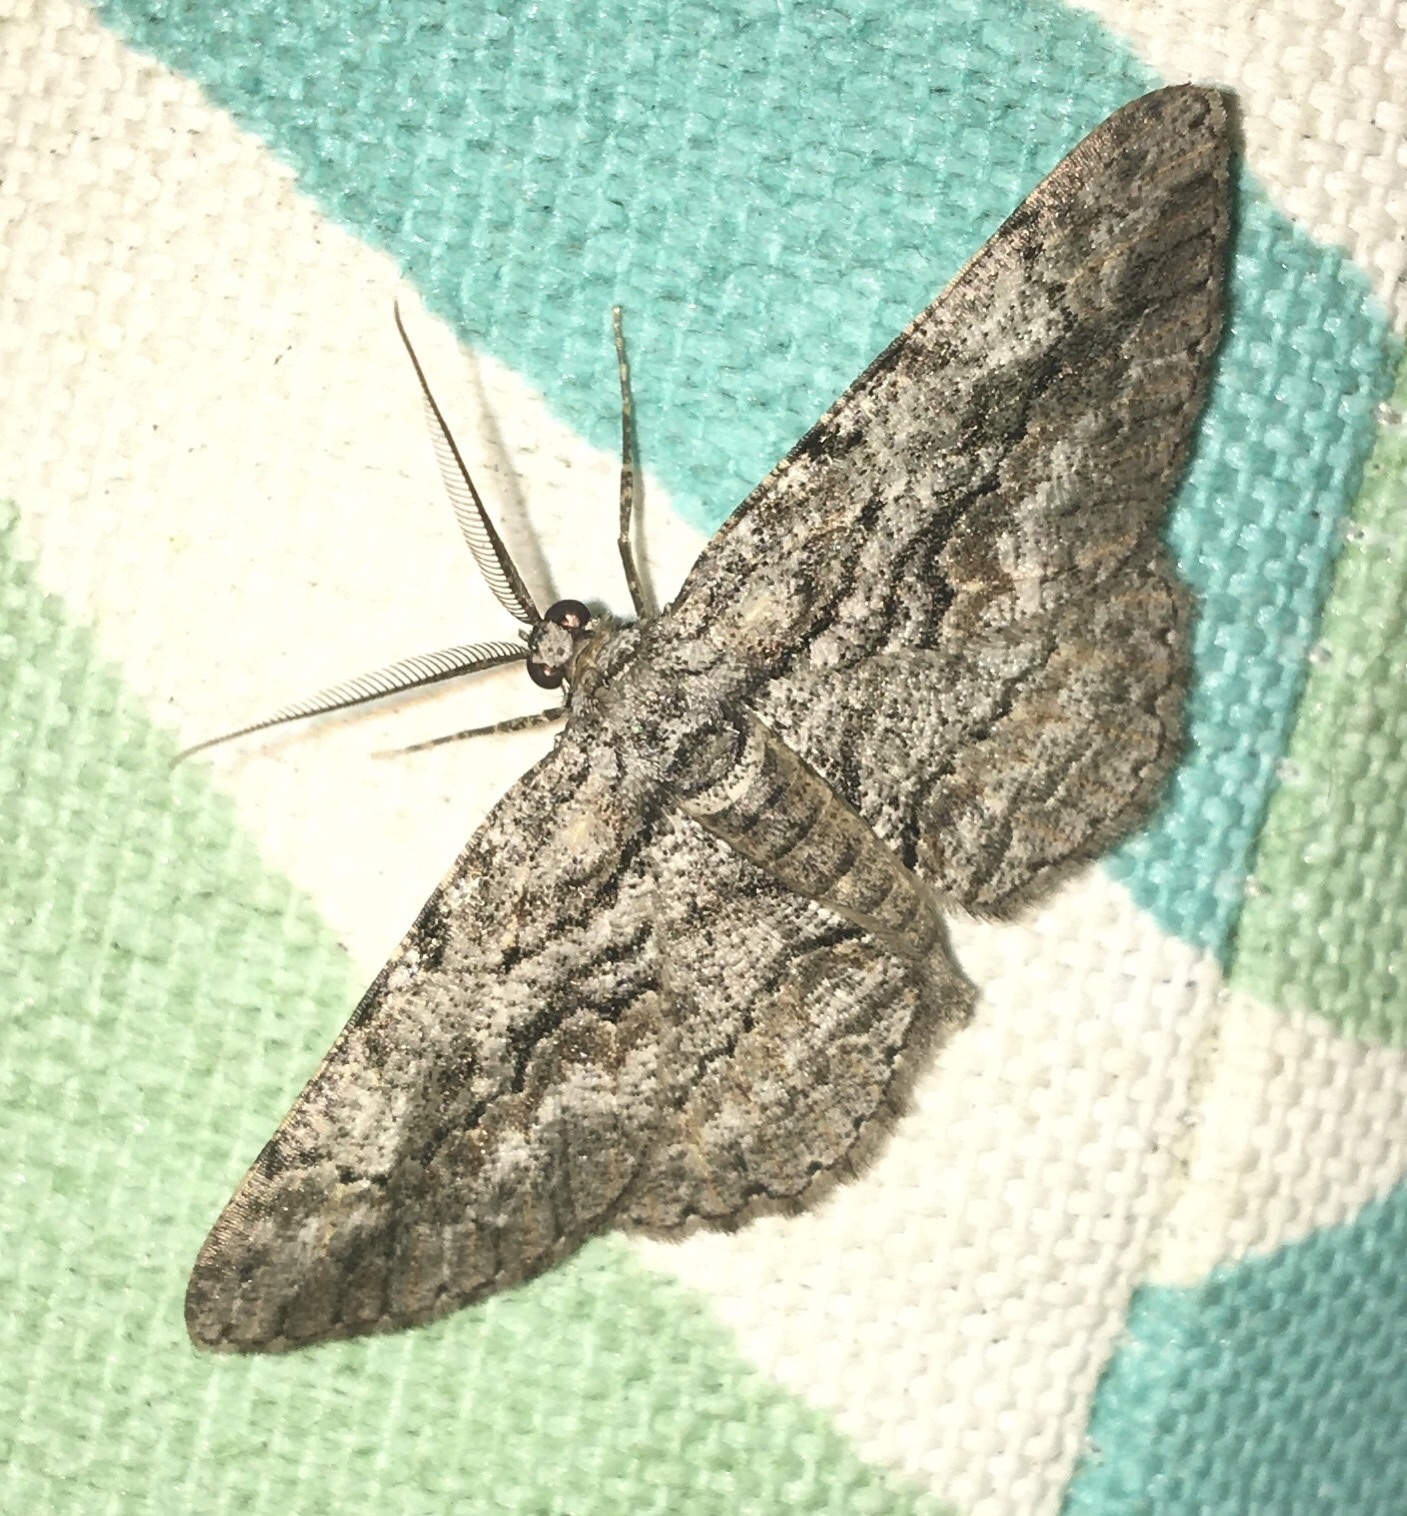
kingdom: Animalia
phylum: Arthropoda
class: Insecta
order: Lepidoptera
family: Geometridae
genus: Anavitrinella
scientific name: Anavitrinella pampinaria
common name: Common gray
